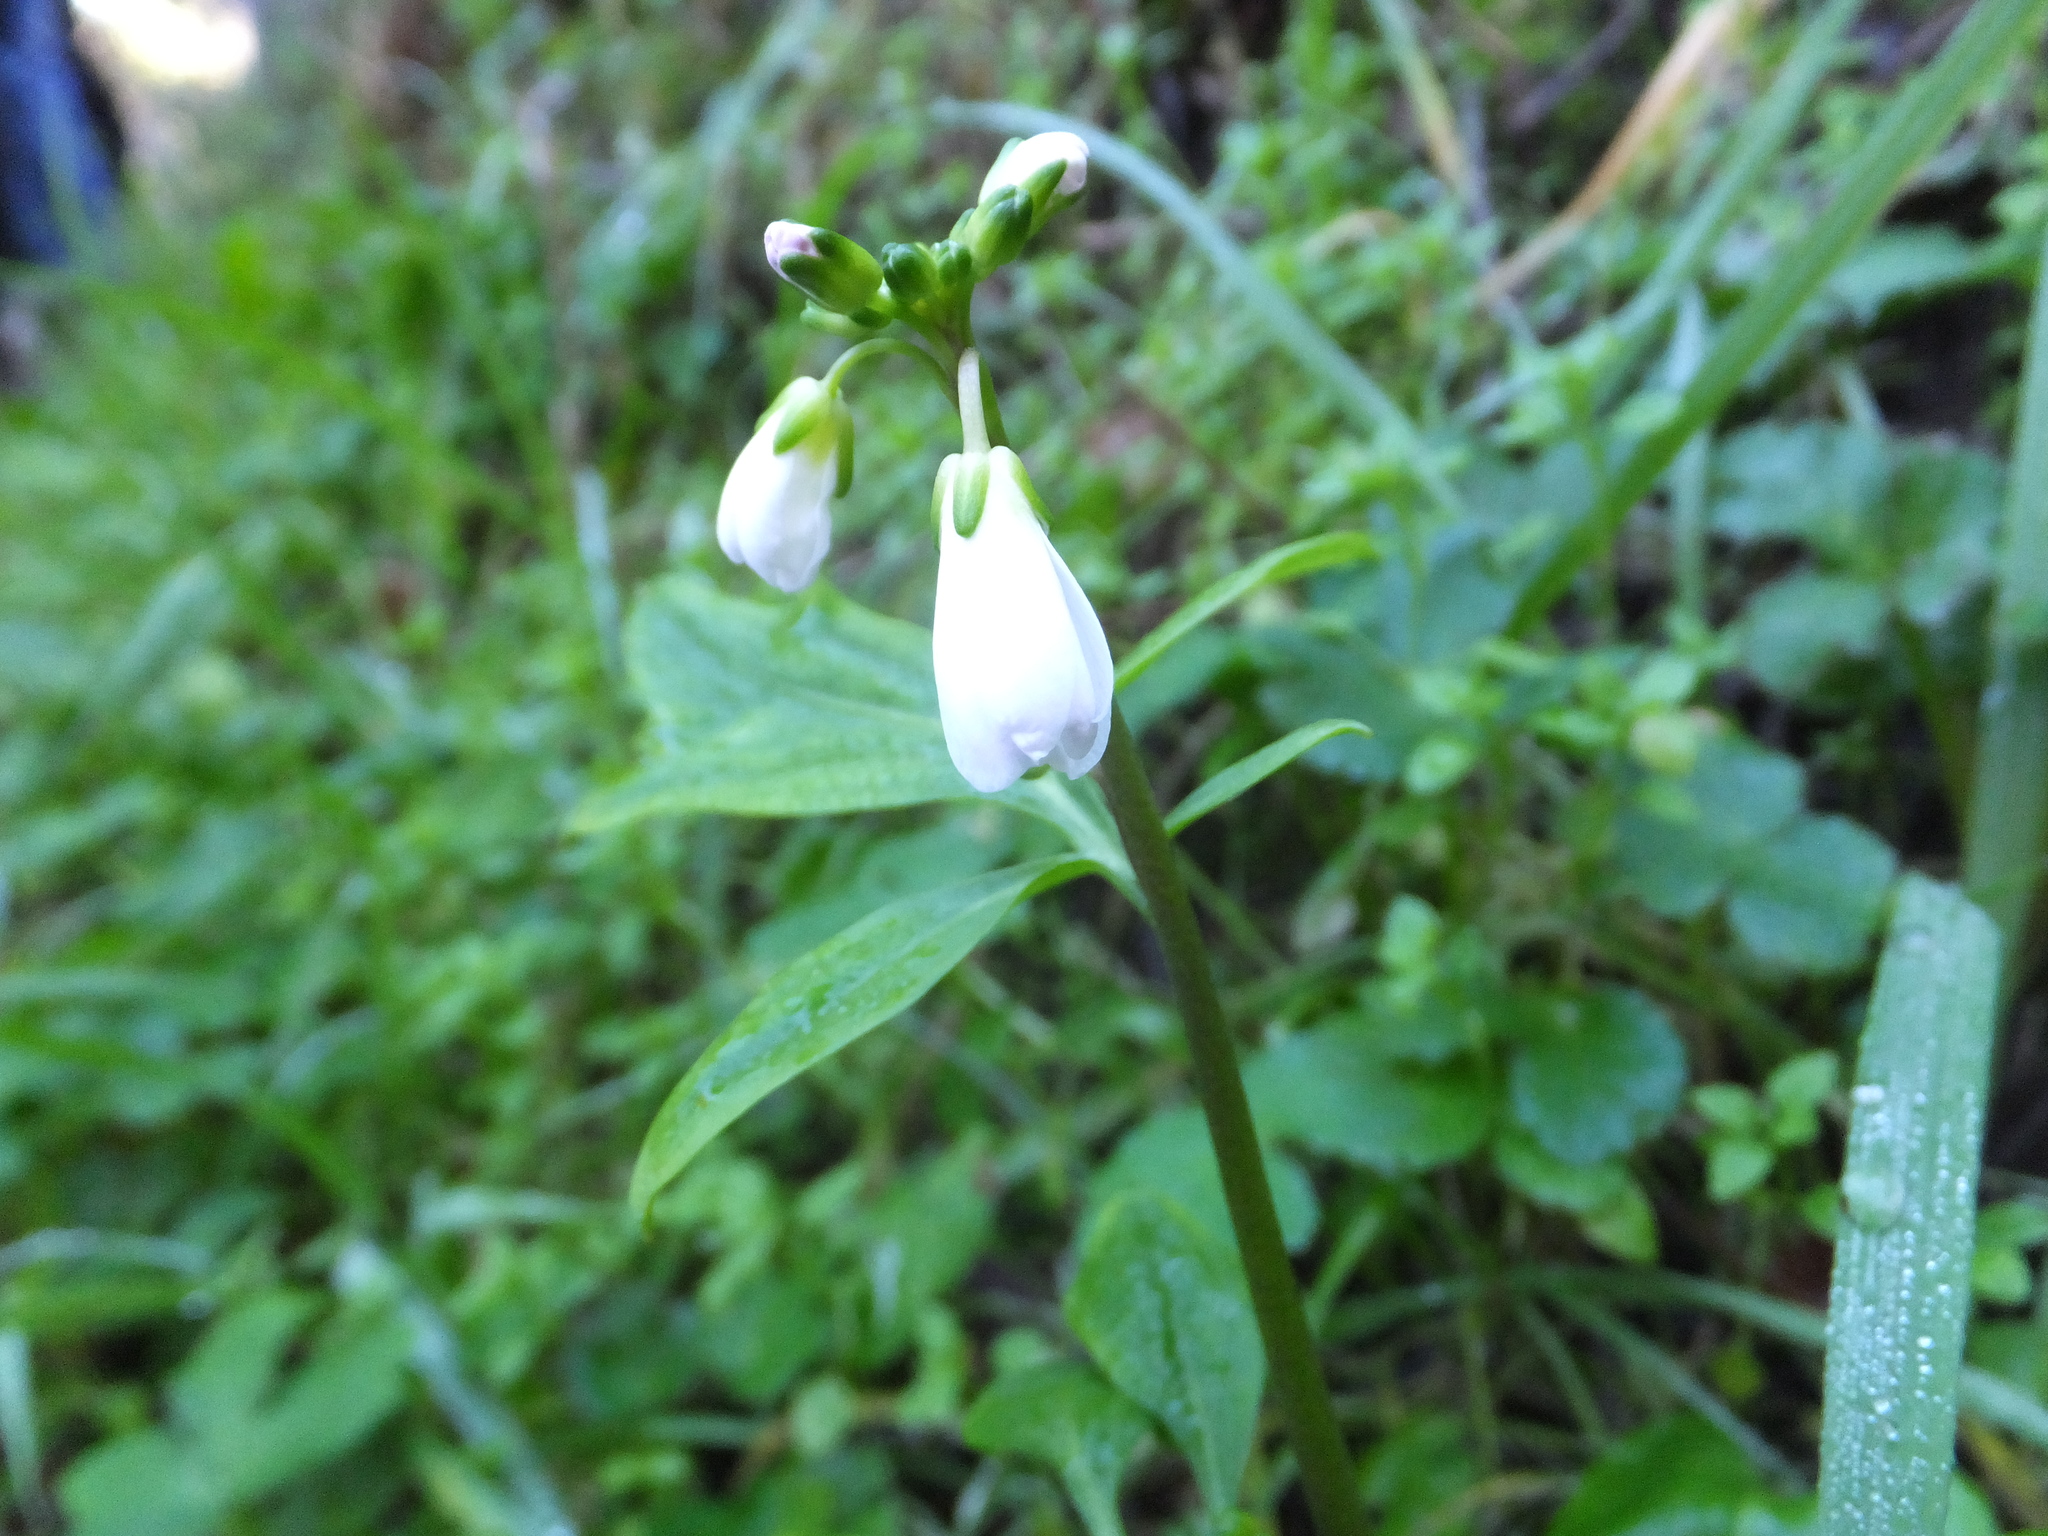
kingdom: Plantae
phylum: Tracheophyta
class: Magnoliopsida
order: Brassicales
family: Brassicaceae
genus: Cardamine
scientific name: Cardamine californica
